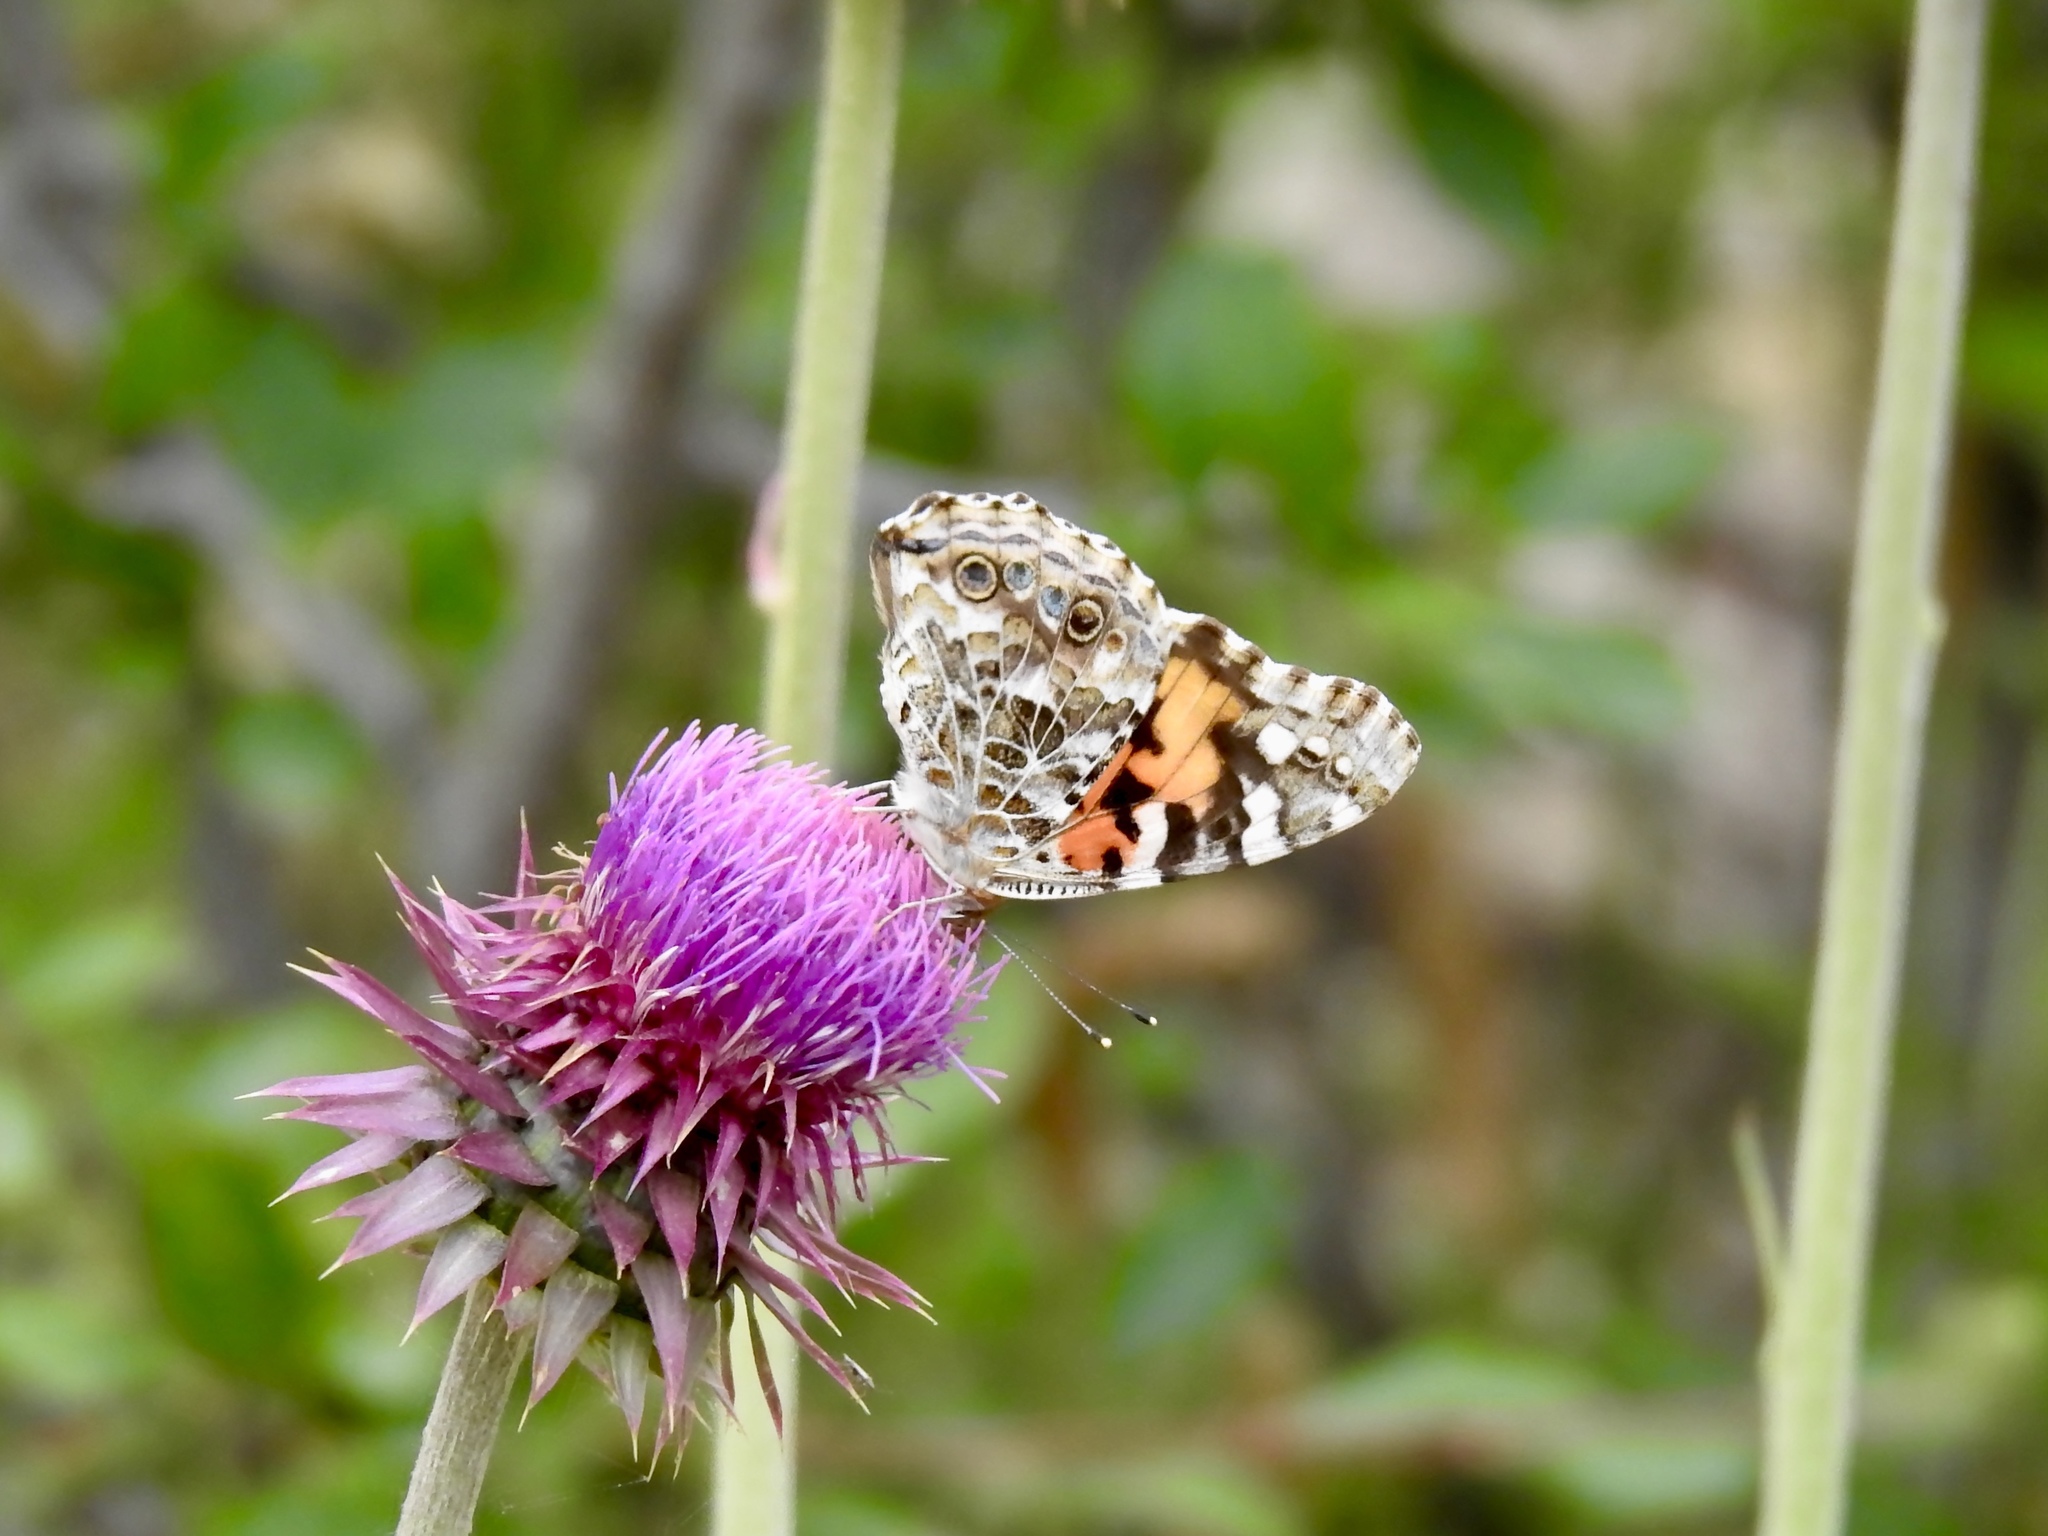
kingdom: Animalia
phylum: Arthropoda
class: Insecta
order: Lepidoptera
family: Nymphalidae
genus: Vanessa
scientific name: Vanessa cardui
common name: Painted lady
